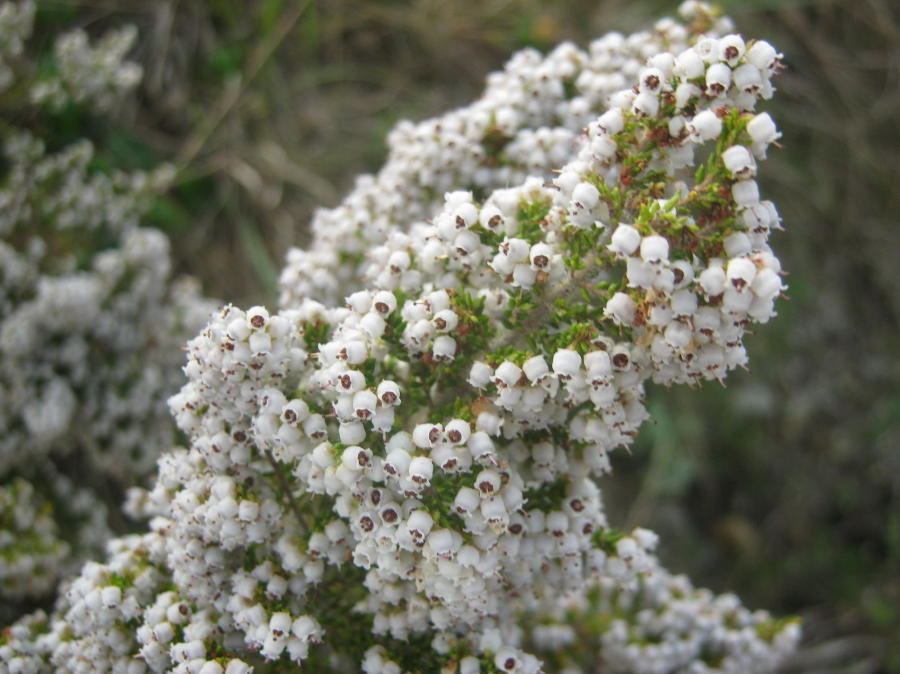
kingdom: Plantae
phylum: Tracheophyta
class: Magnoliopsida
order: Ericales
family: Ericaceae
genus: Erica
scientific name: Erica scabriuscula
